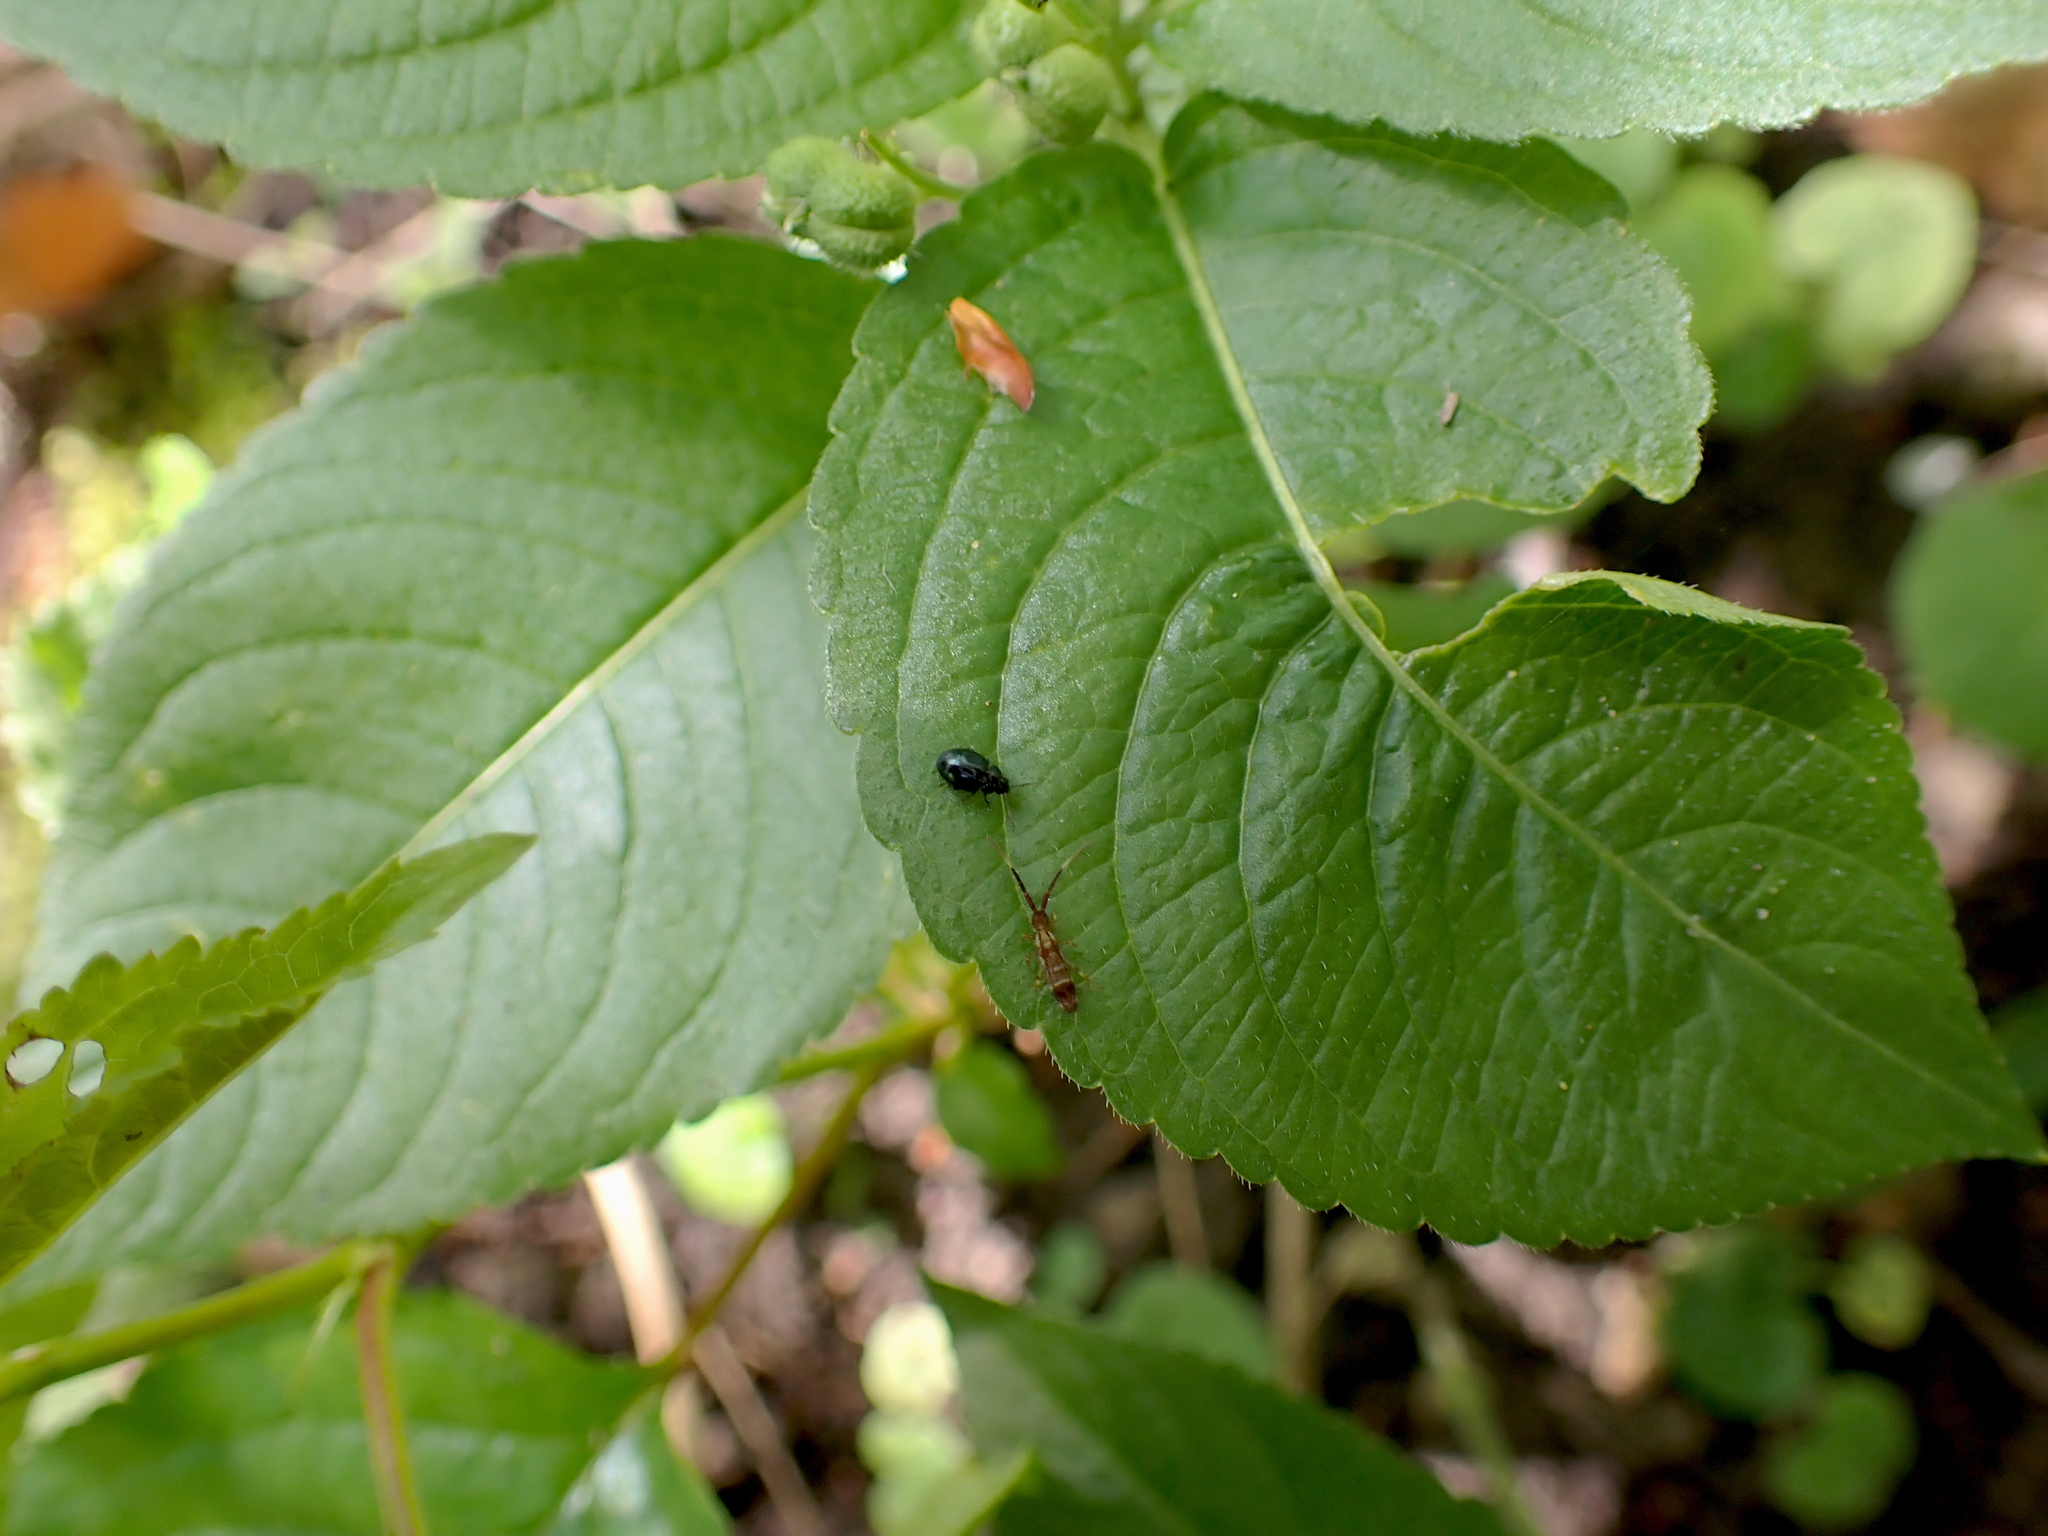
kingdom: Animalia
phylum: Arthropoda
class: Collembola
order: Entomobryomorpha
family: Entomobryidae
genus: Entomobrya
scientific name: Entomobrya nivalis
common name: Cosmopolitan springtail
